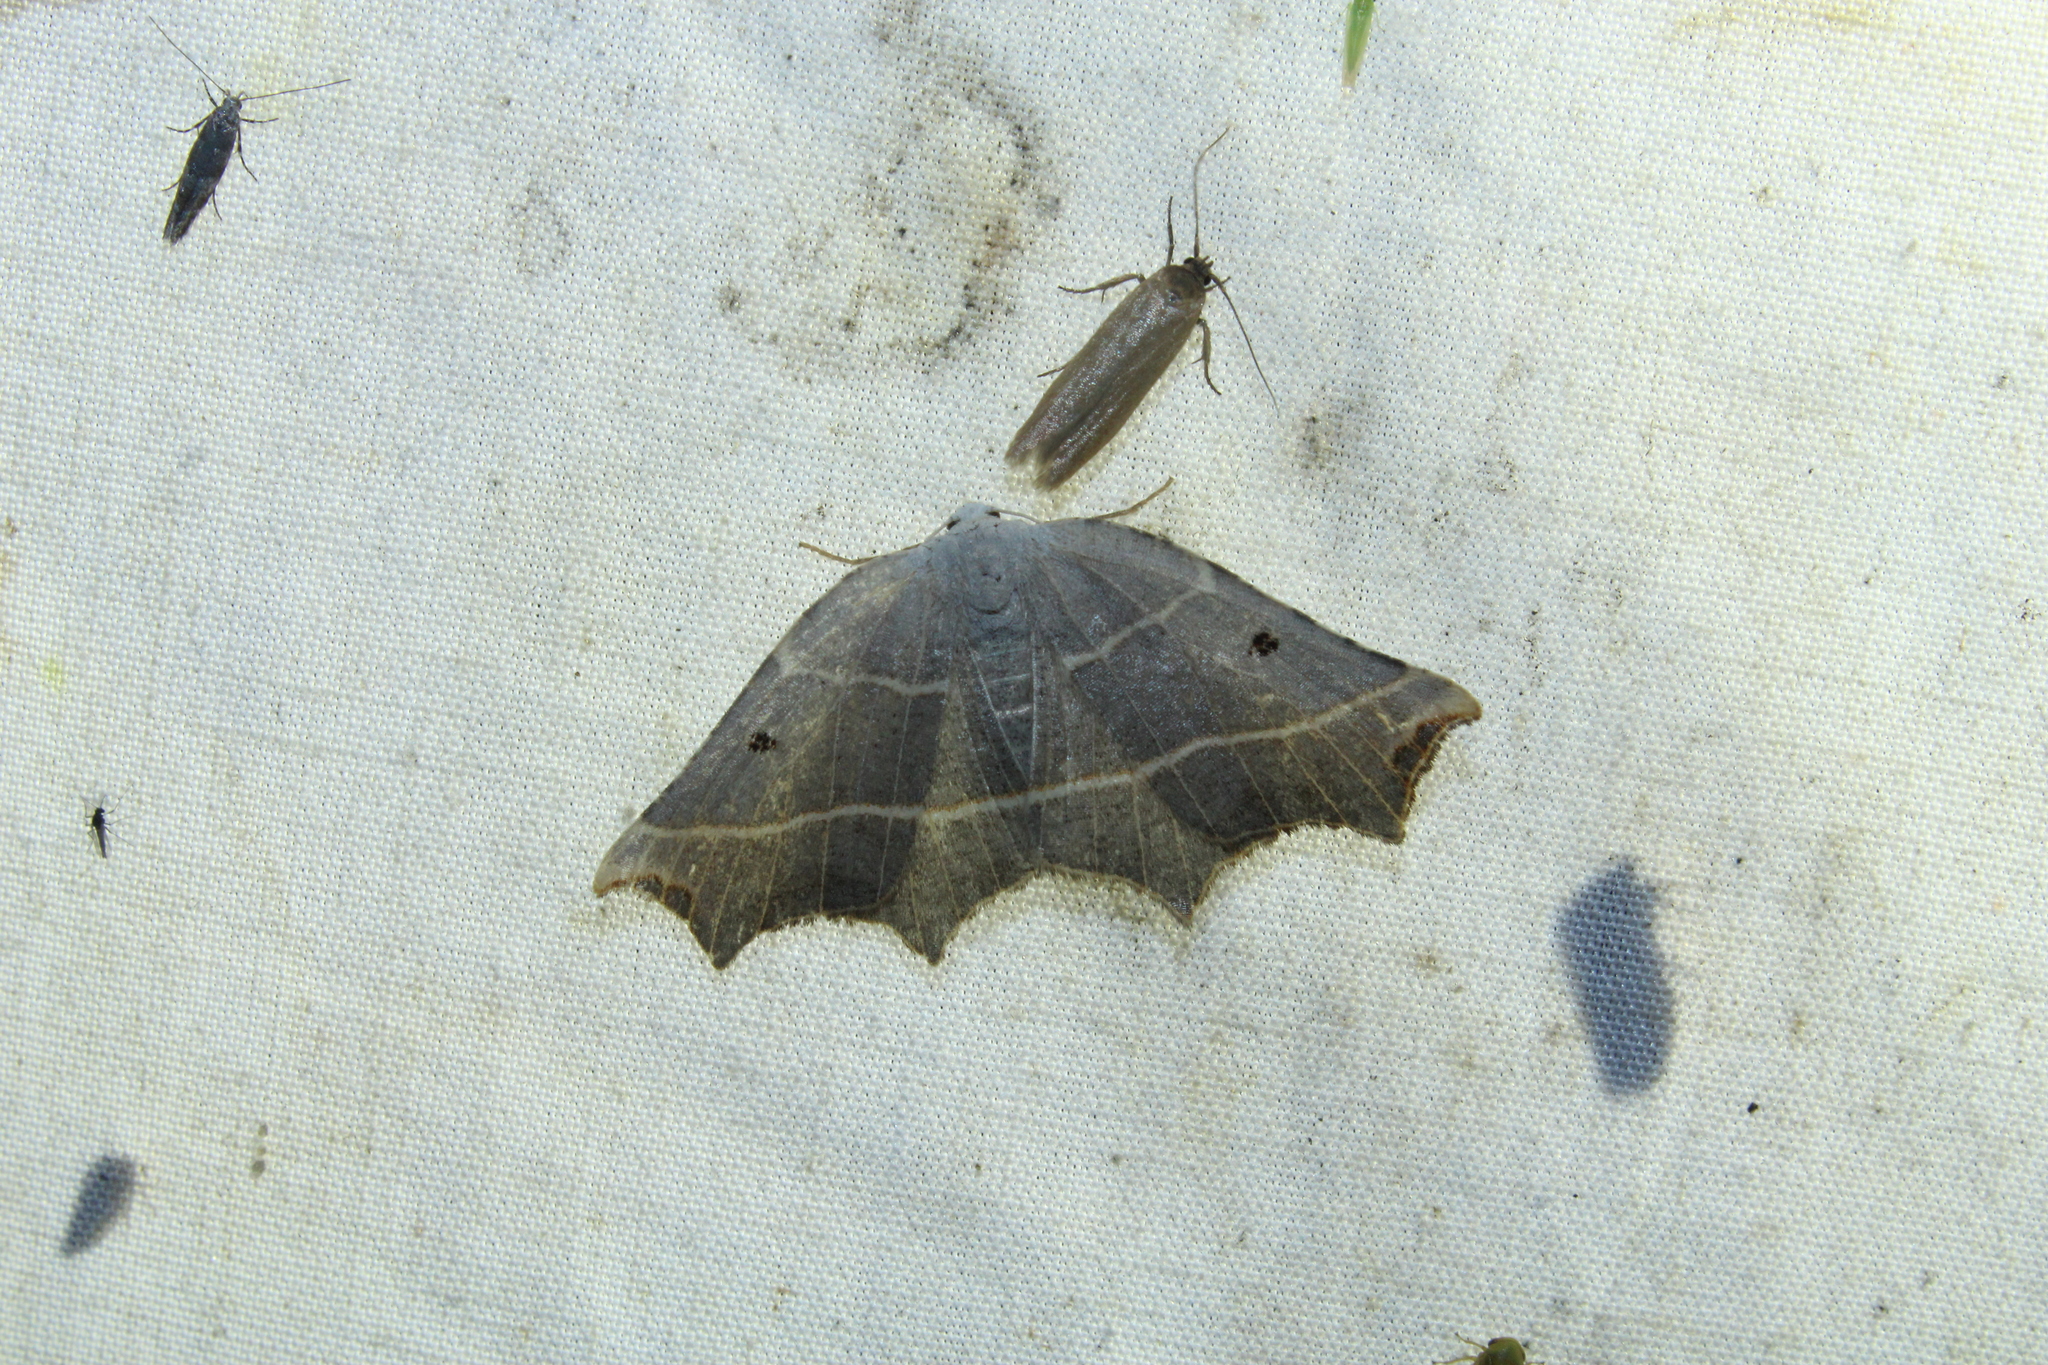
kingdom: Animalia
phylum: Arthropoda
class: Insecta
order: Lepidoptera
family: Geometridae
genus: Metanema
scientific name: Metanema inatomaria
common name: Pale metanema
